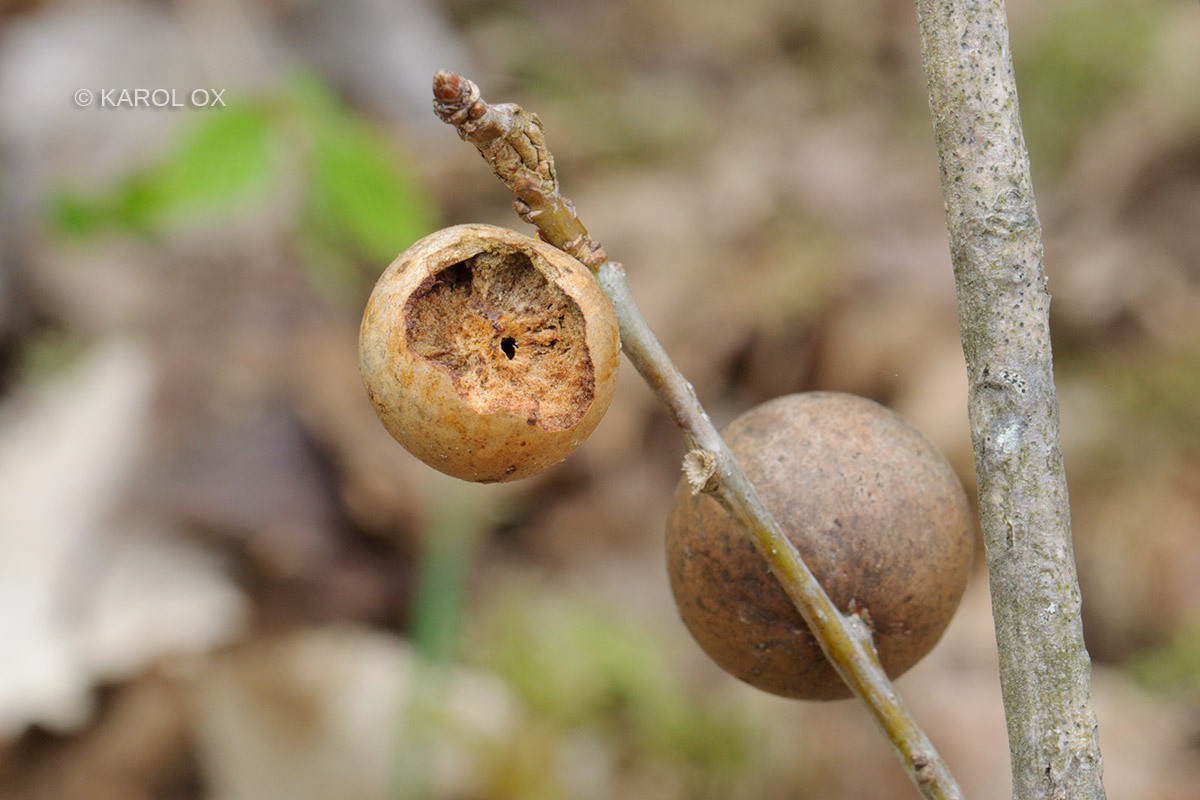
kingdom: Animalia
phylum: Arthropoda
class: Insecta
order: Hymenoptera
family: Cynipidae
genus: Andricus
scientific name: Andricus kollari
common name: Marble gall
